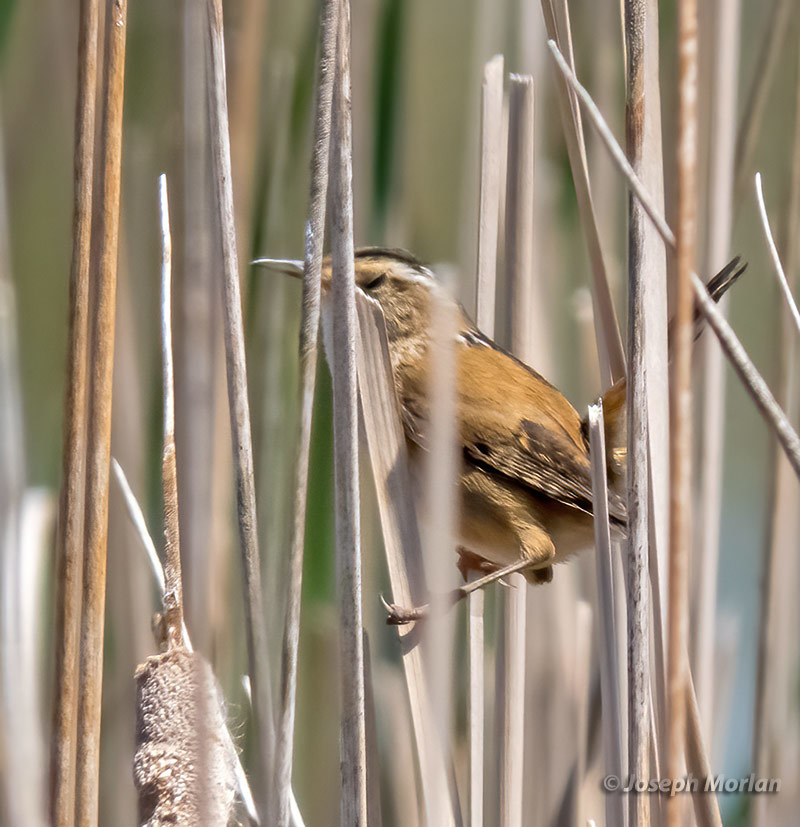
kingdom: Animalia
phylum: Chordata
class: Aves
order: Passeriformes
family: Troglodytidae
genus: Cistothorus
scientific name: Cistothorus palustris
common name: Marsh wren
